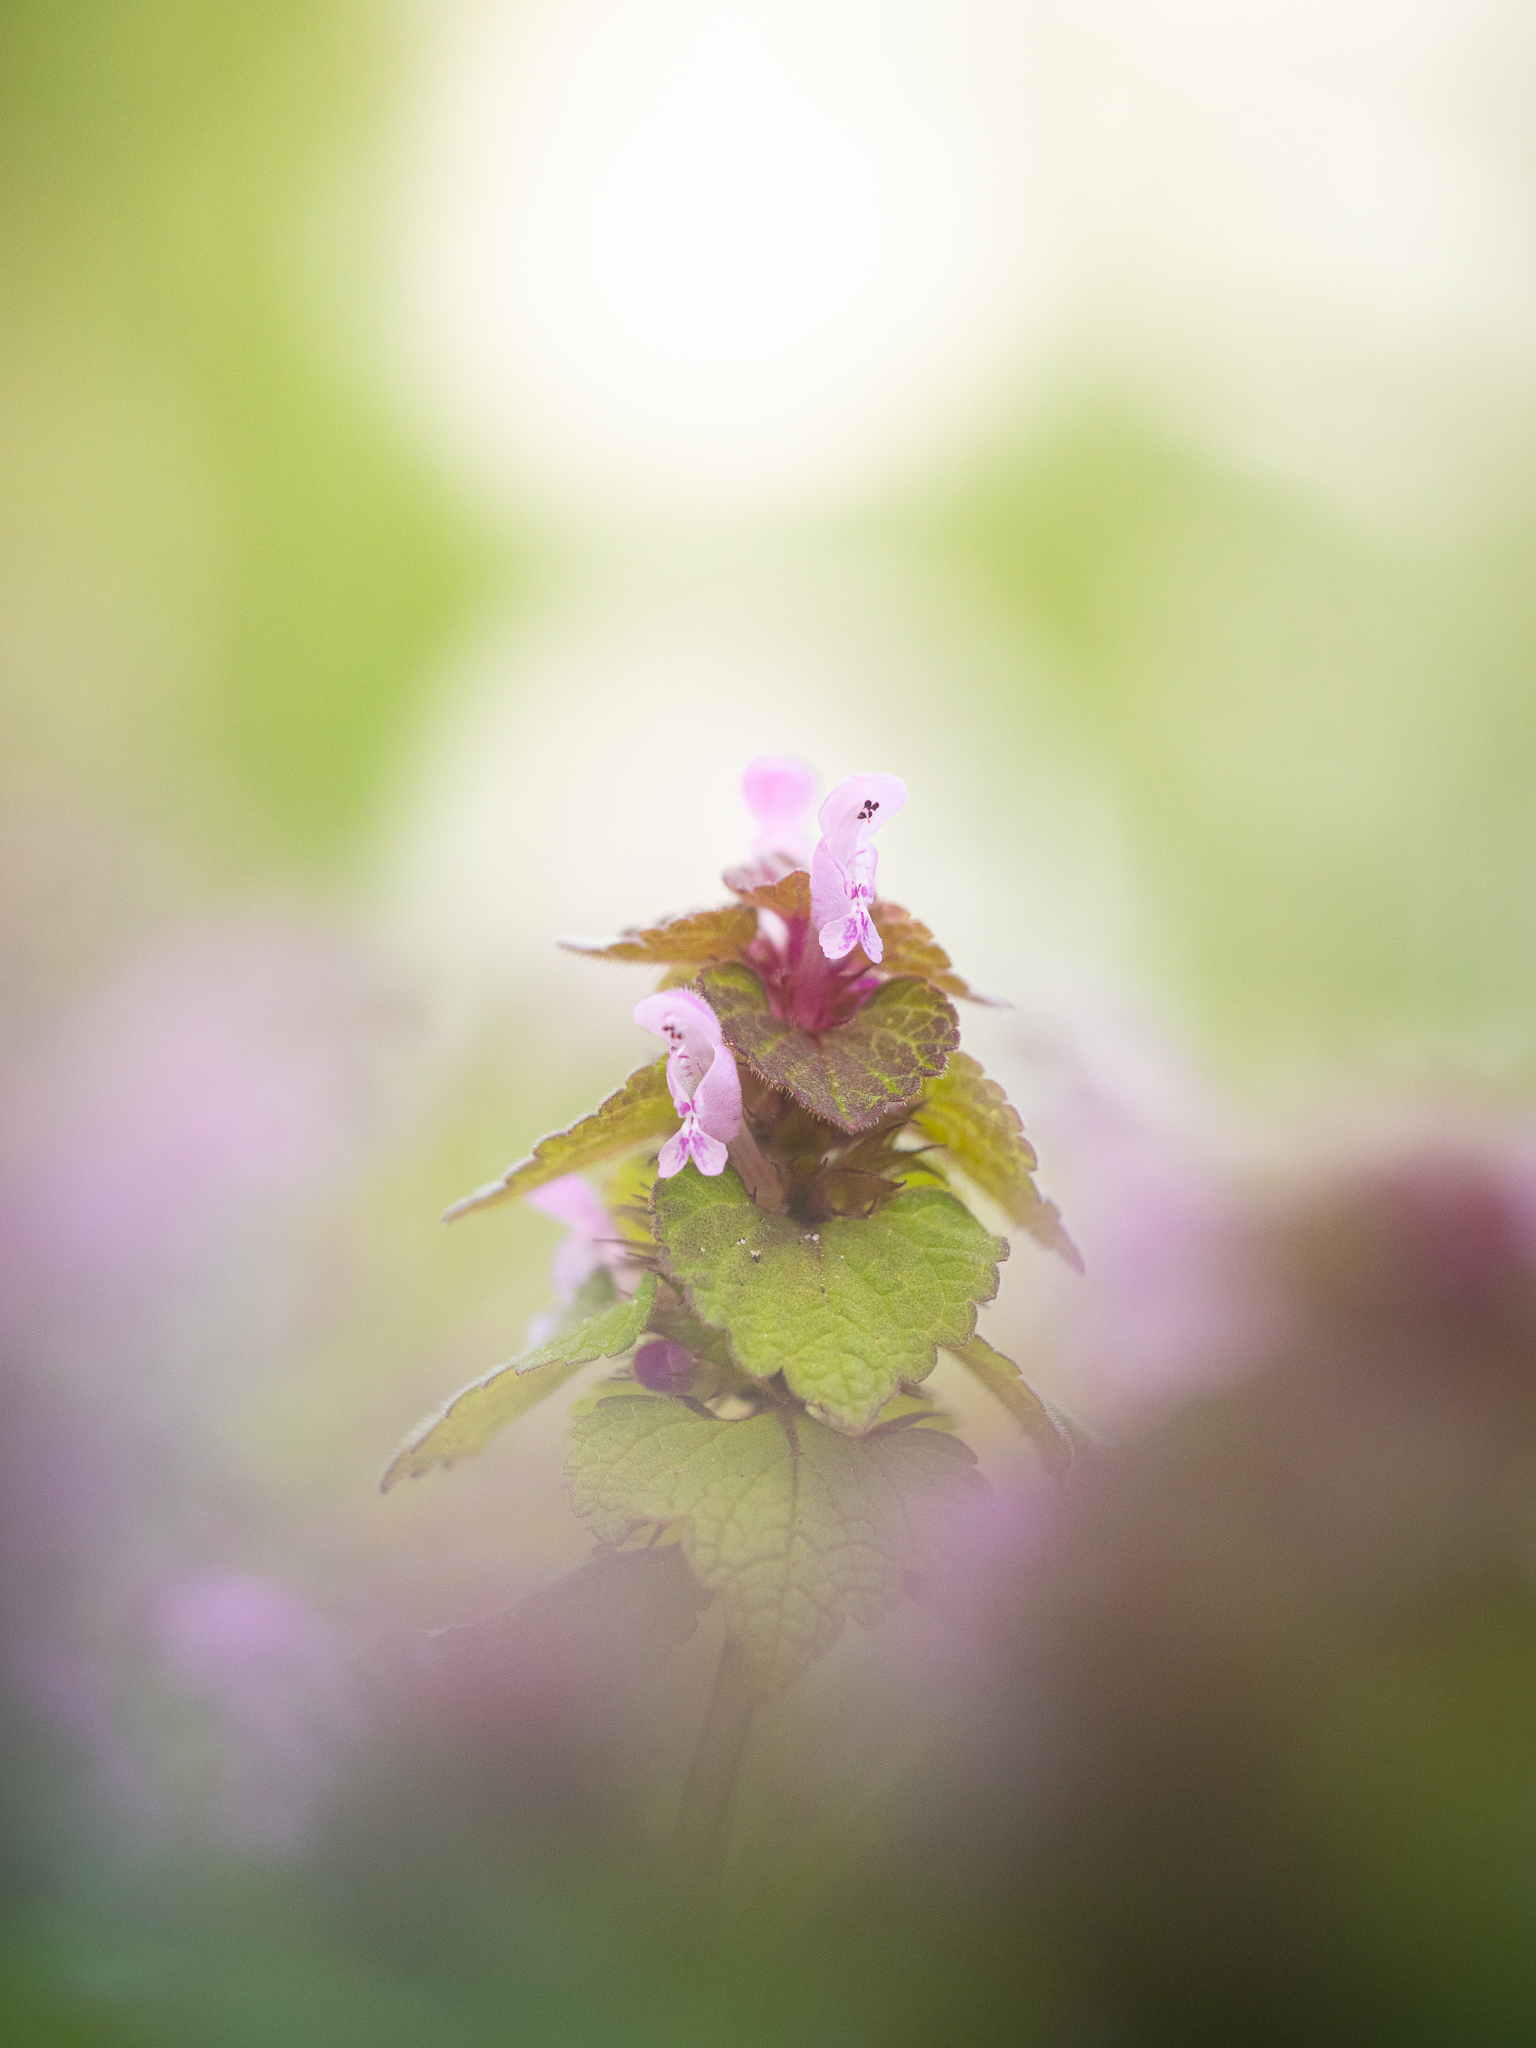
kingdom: Plantae
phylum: Tracheophyta
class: Magnoliopsida
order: Lamiales
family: Lamiaceae
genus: Lamium
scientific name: Lamium purpureum
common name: Red dead-nettle
